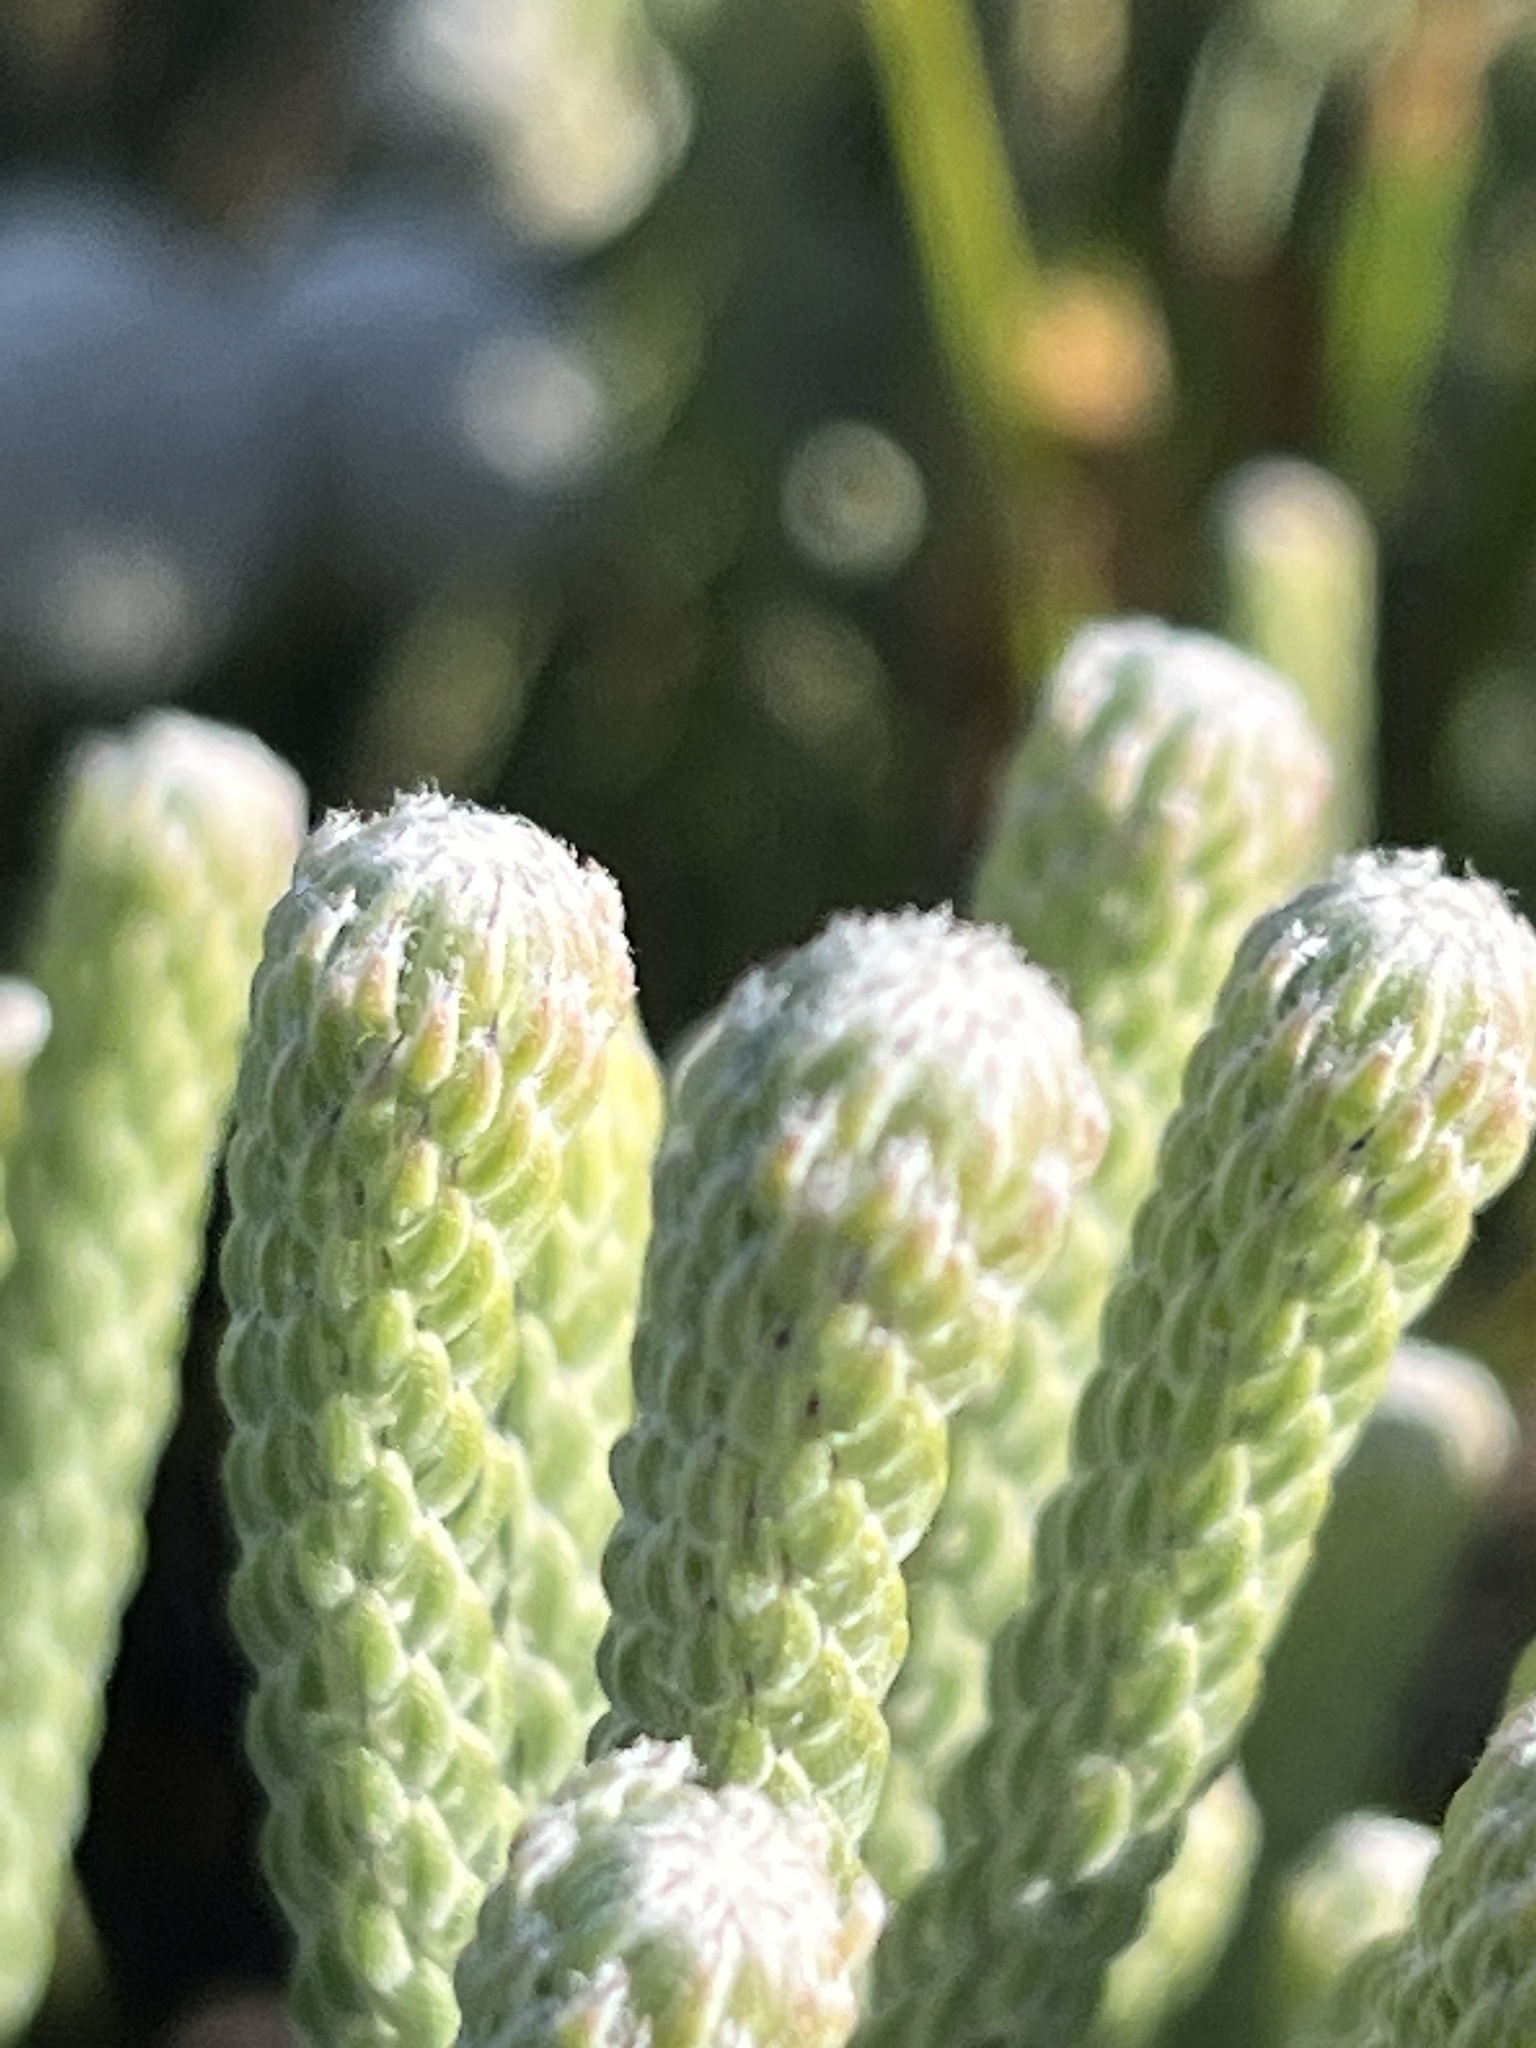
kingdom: Plantae
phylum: Tracheophyta
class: Magnoliopsida
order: Bruniales
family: Bruniaceae
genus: Brunia
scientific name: Brunia laevis
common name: Silver brunia
